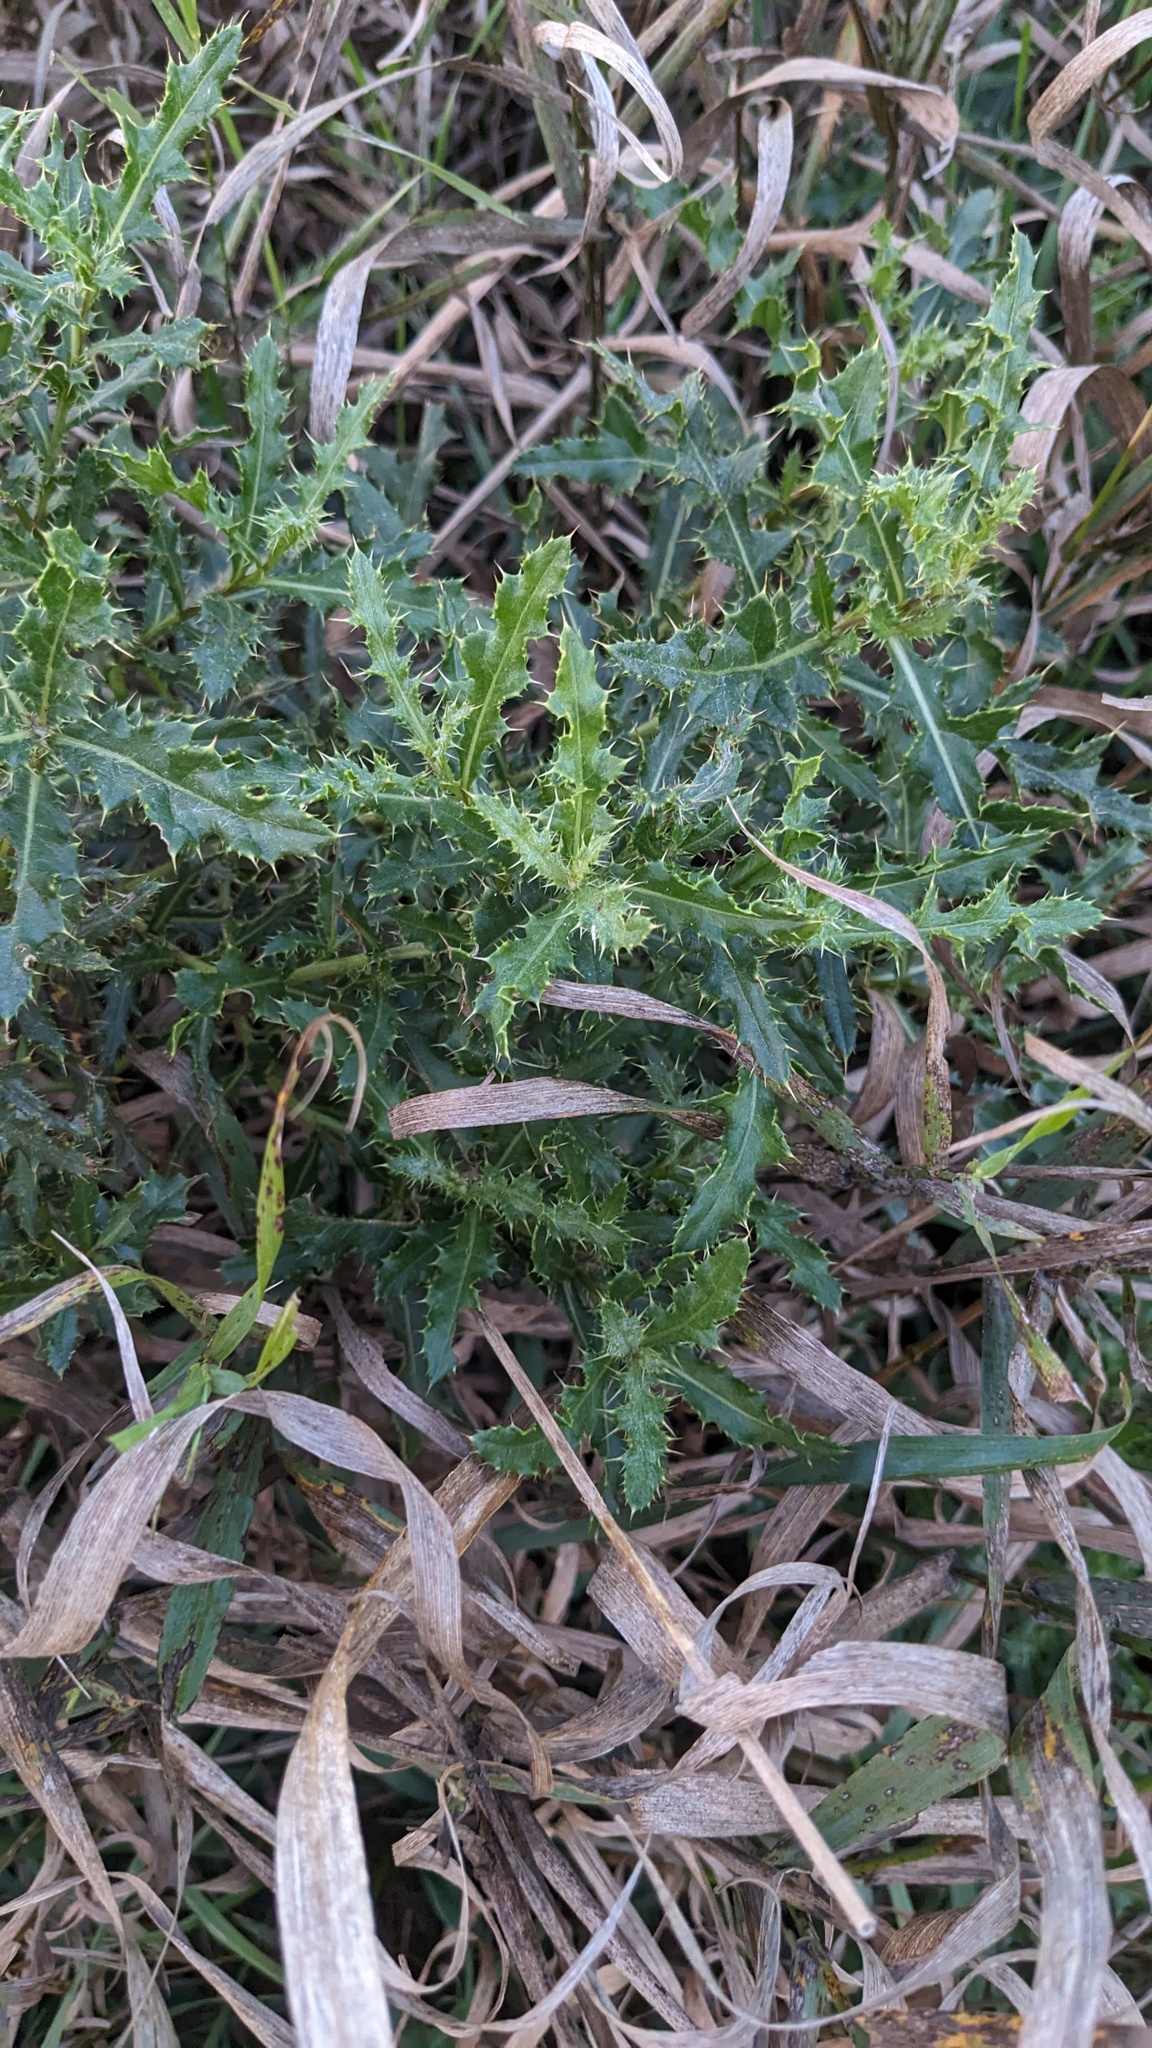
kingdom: Plantae
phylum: Tracheophyta
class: Magnoliopsida
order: Asterales
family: Asteraceae
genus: Cirsium
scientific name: Cirsium arvense
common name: Creeping thistle
